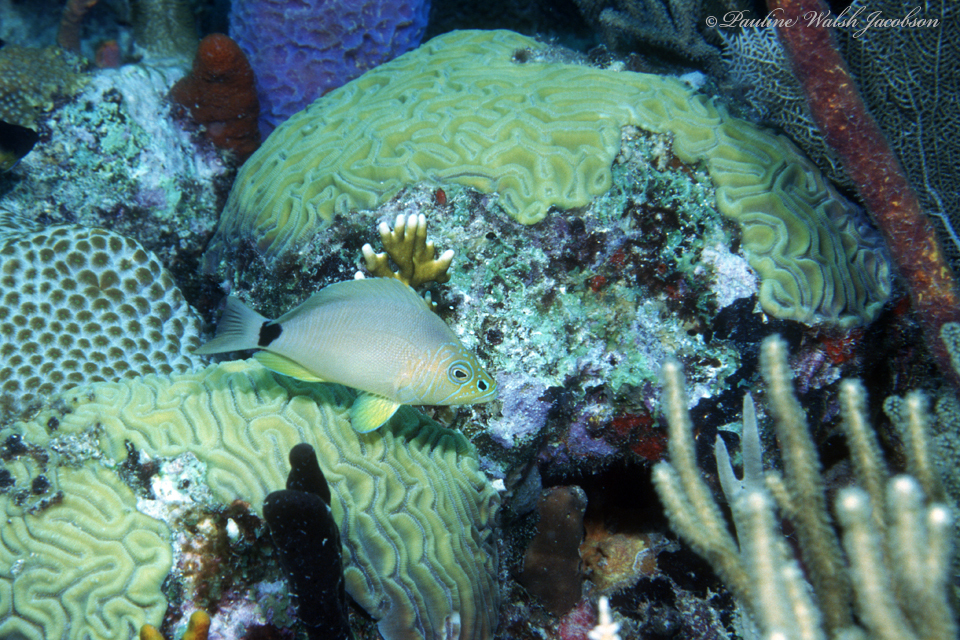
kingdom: Animalia
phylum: Chordata
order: Perciformes
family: Serranidae
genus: Hypoplectrus
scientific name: Hypoplectrus unicolor
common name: Butter hamlet
